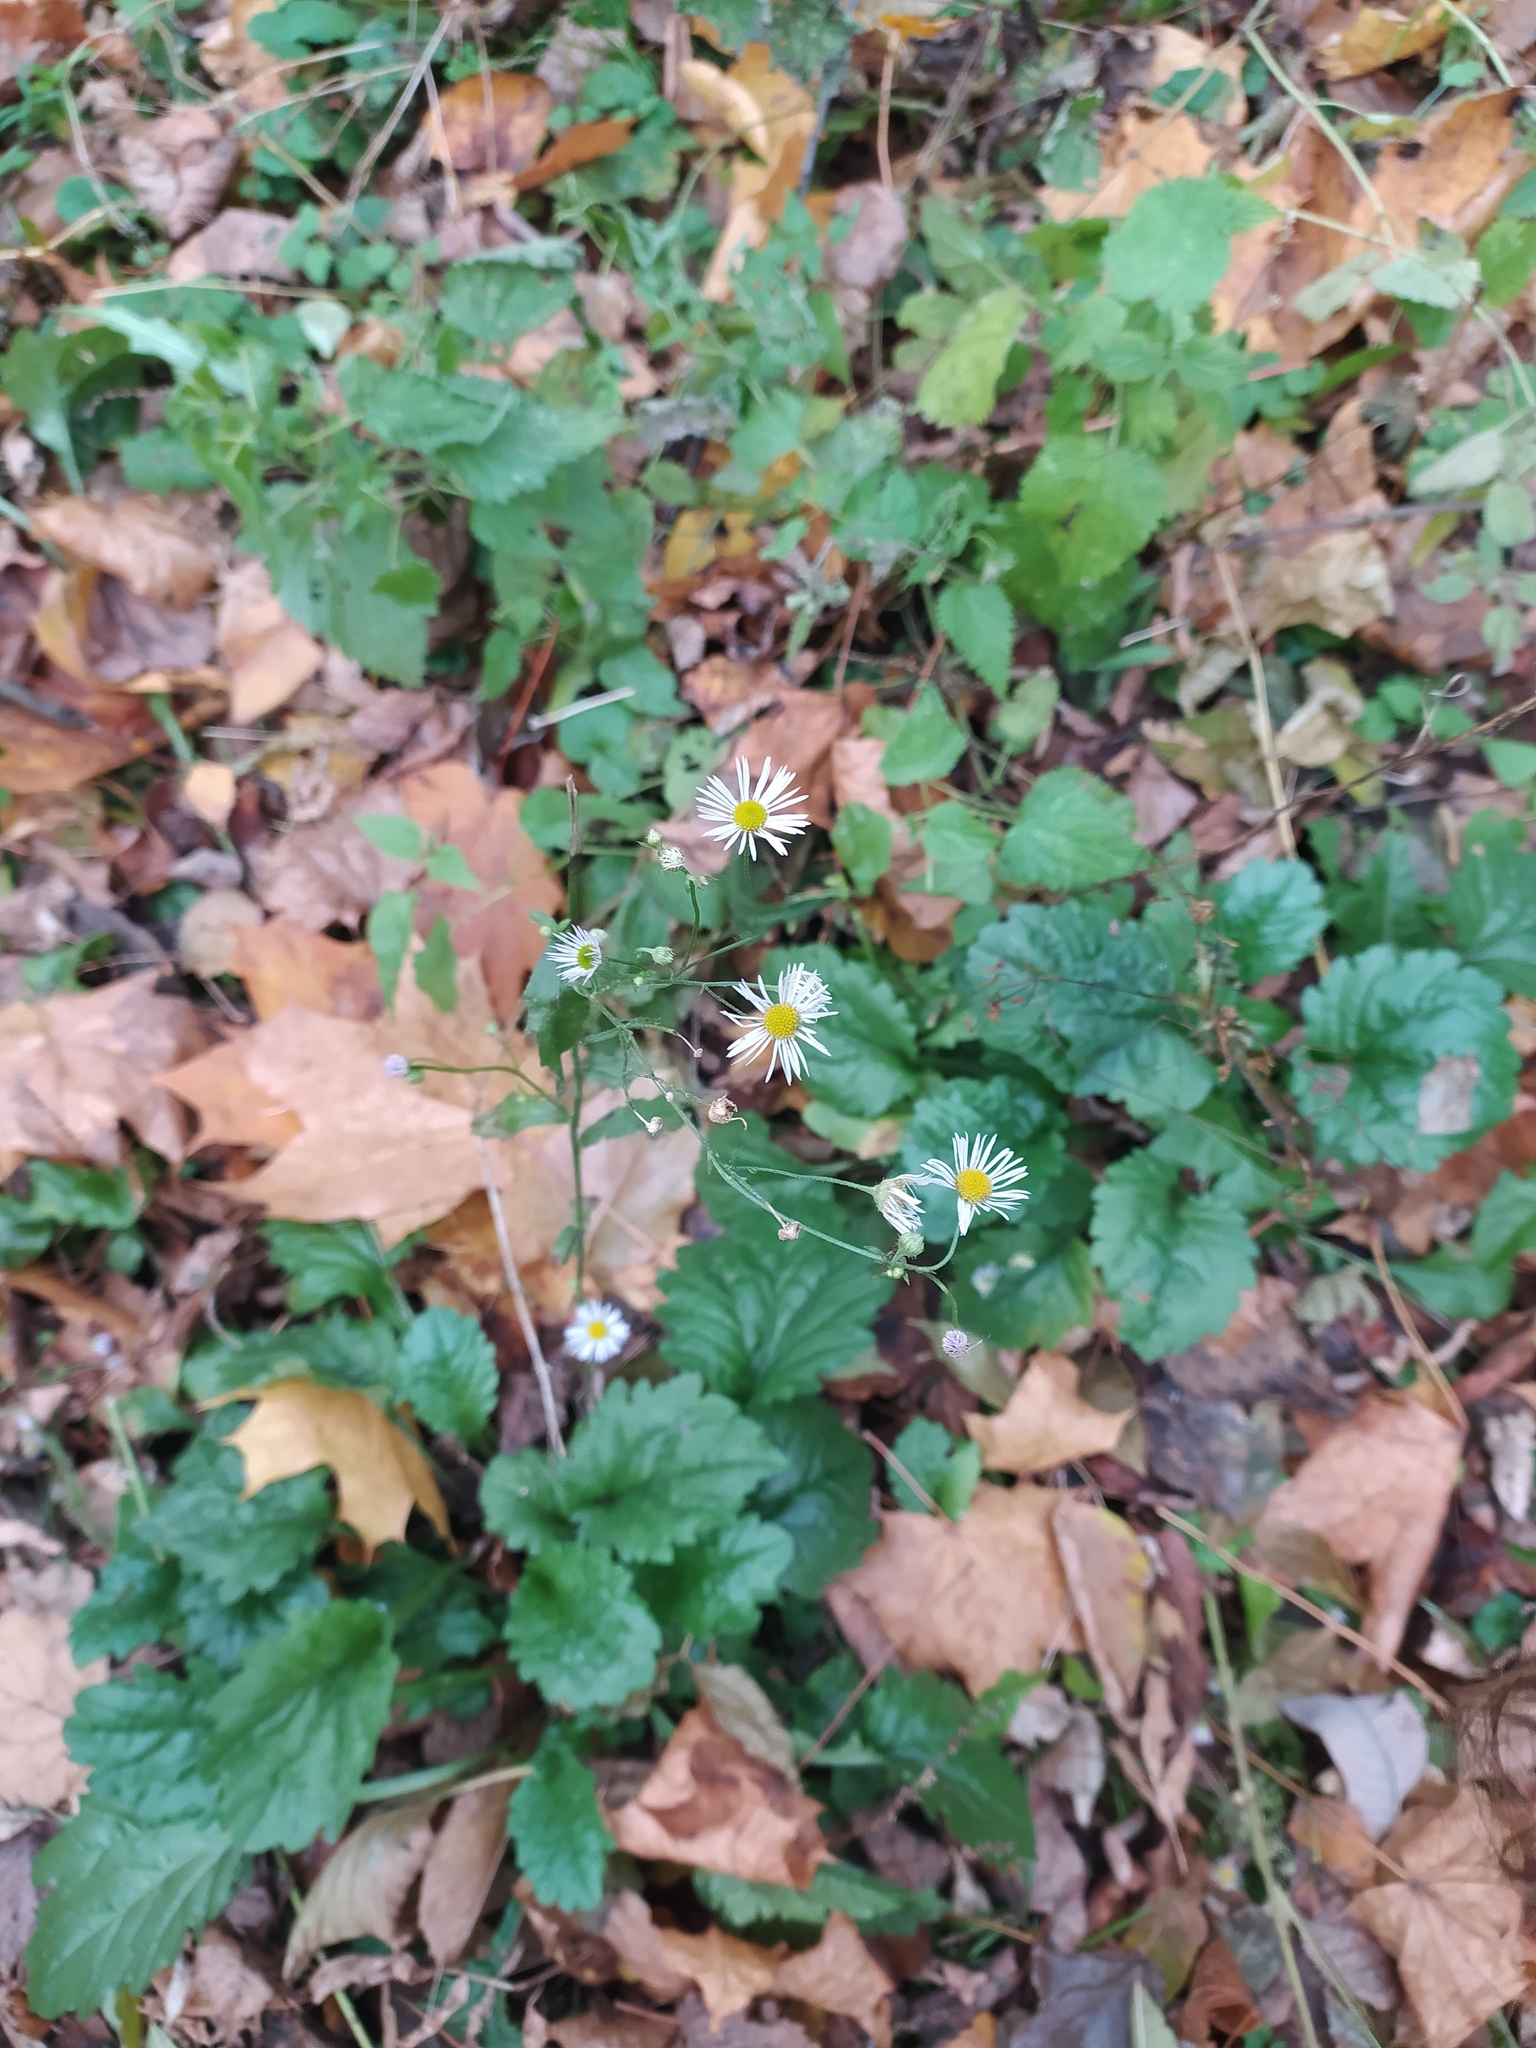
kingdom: Plantae
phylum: Tracheophyta
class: Magnoliopsida
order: Asterales
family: Asteraceae
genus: Erigeron
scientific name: Erigeron annuus
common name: Tall fleabane
